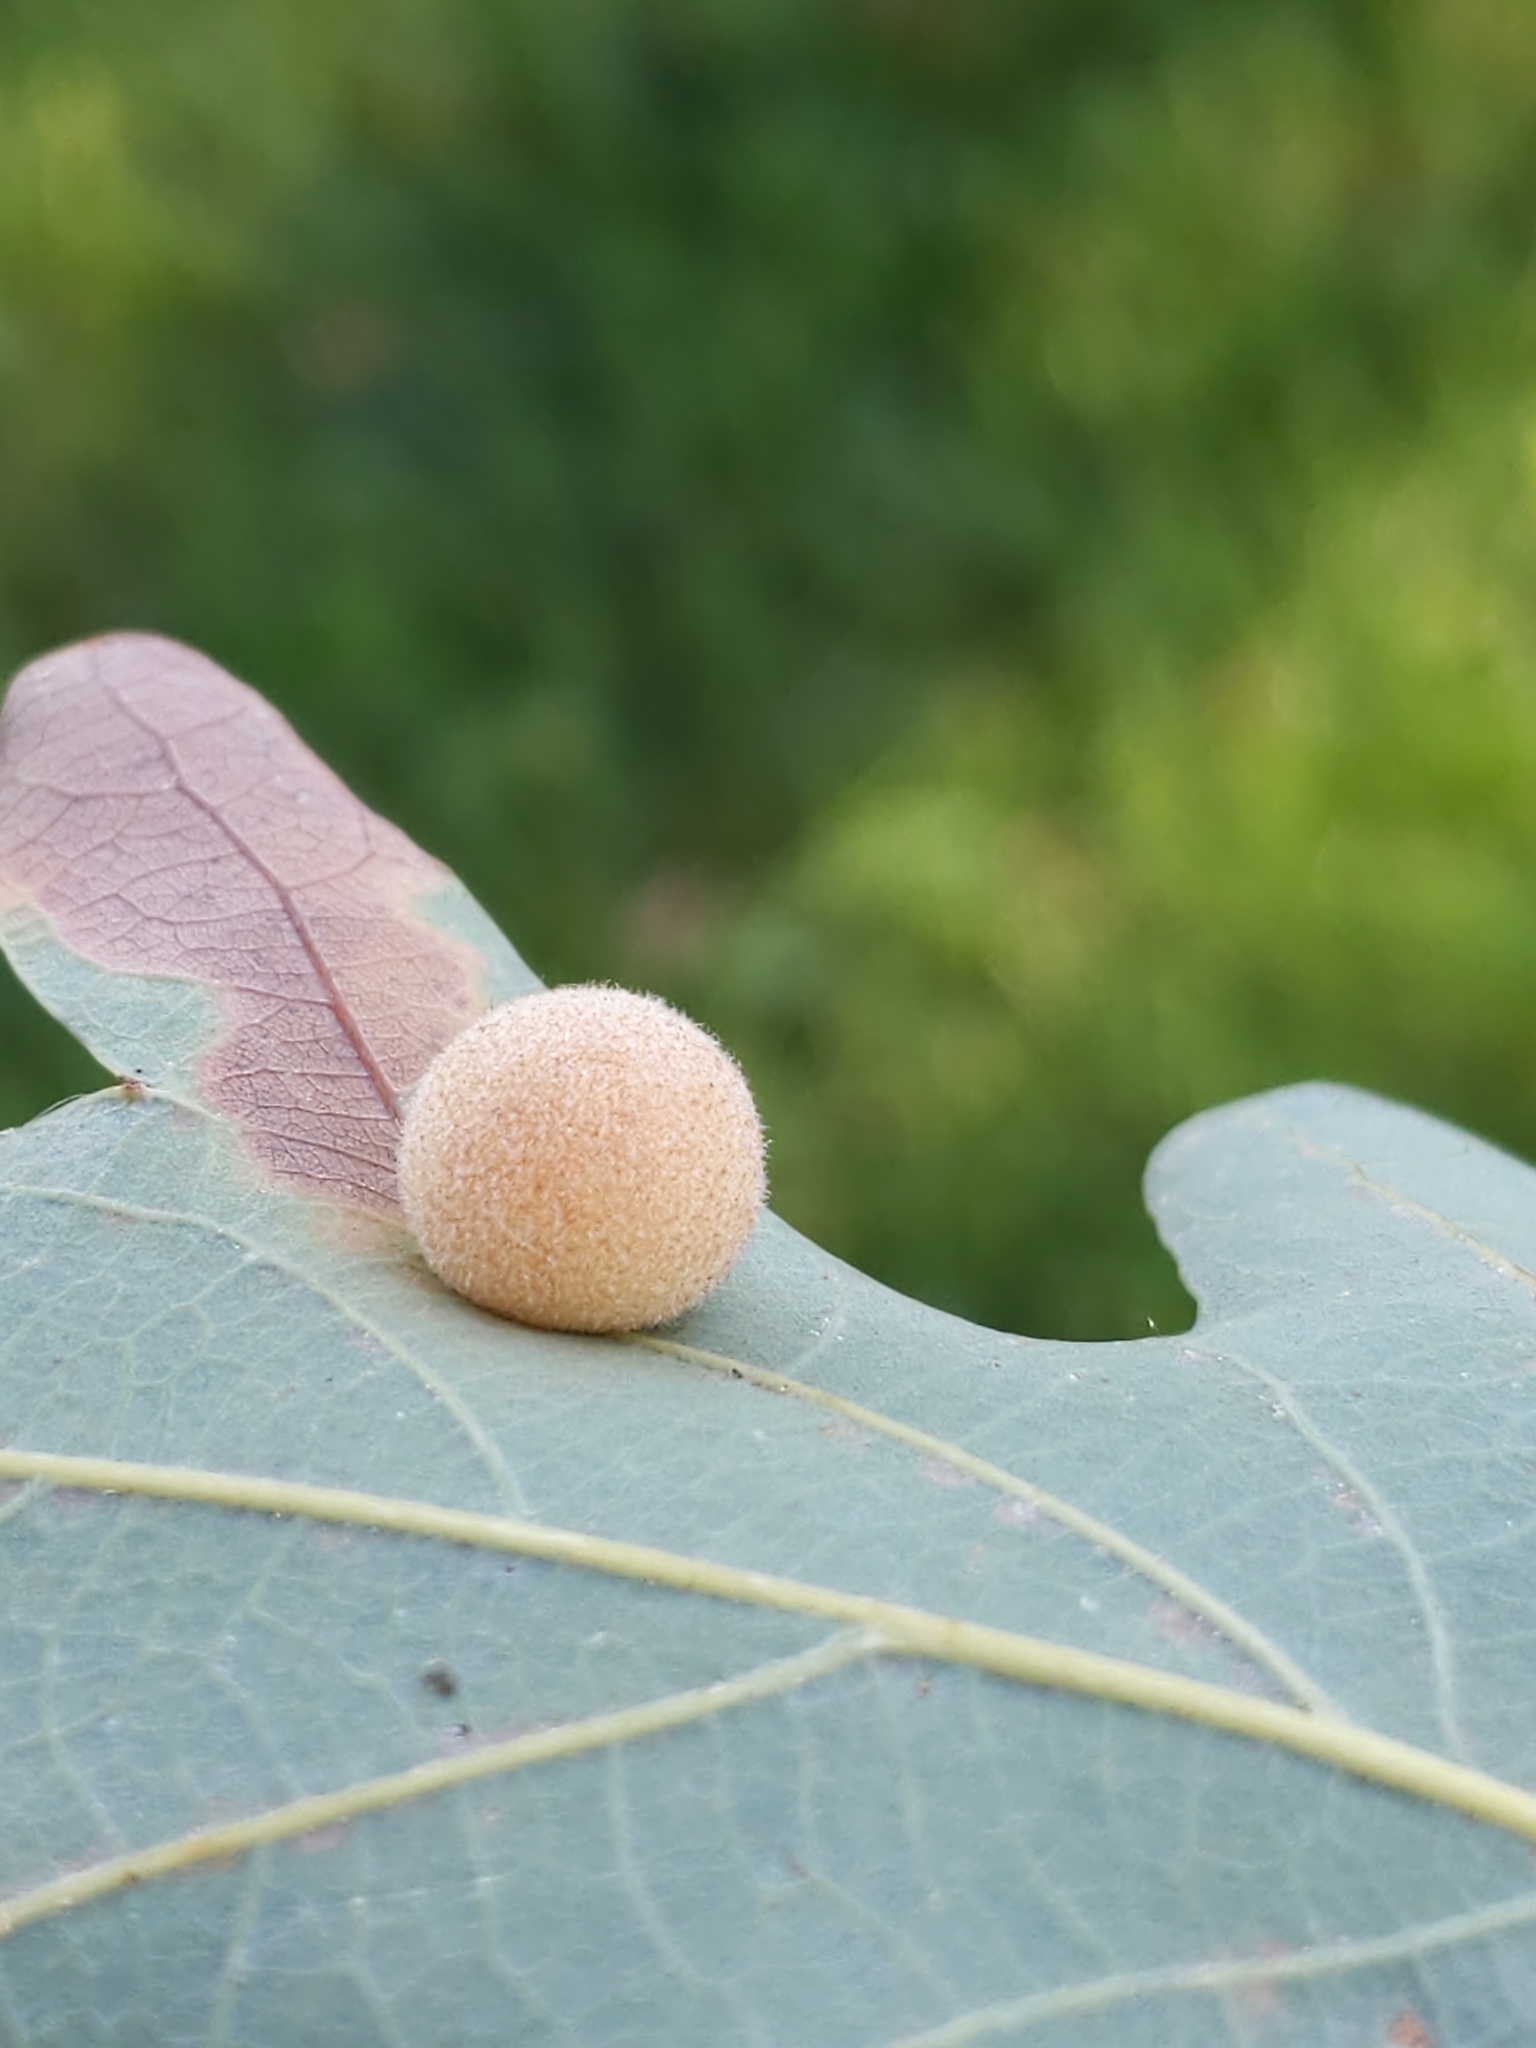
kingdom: Animalia
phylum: Arthropoda
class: Insecta
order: Hymenoptera
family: Cynipidae
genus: Philonix
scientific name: Philonix fulvicollis
